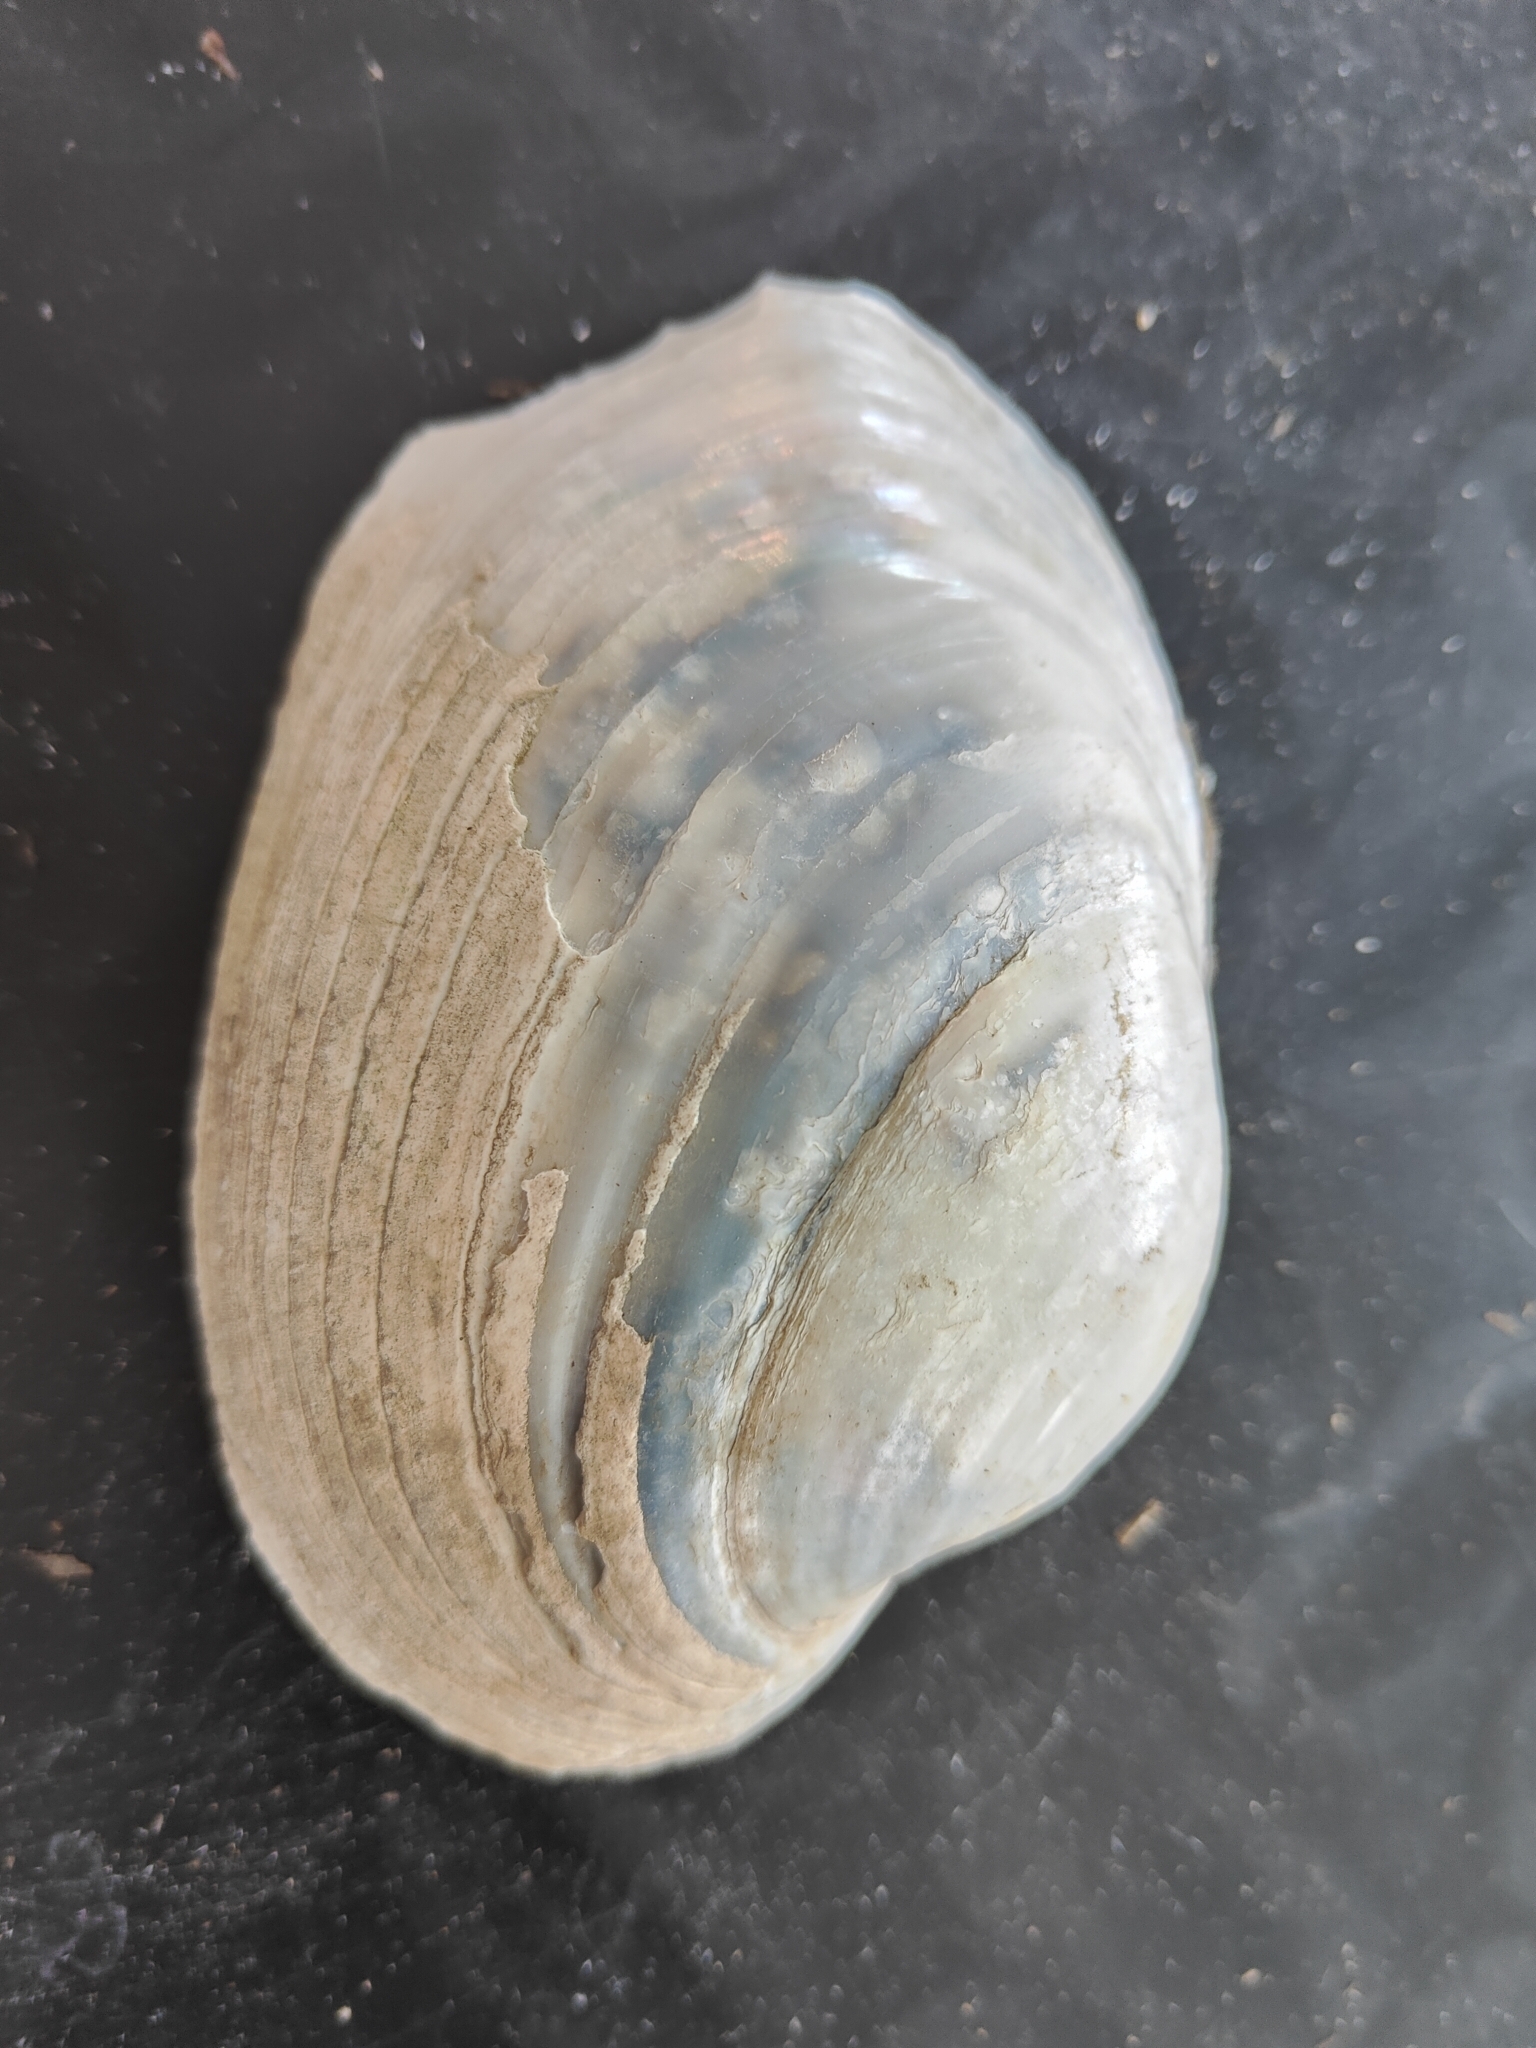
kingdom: Animalia
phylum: Mollusca
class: Bivalvia
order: Unionida
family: Unionidae
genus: Lampsilis
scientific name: Lampsilis cardium
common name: Plain pocketbook
